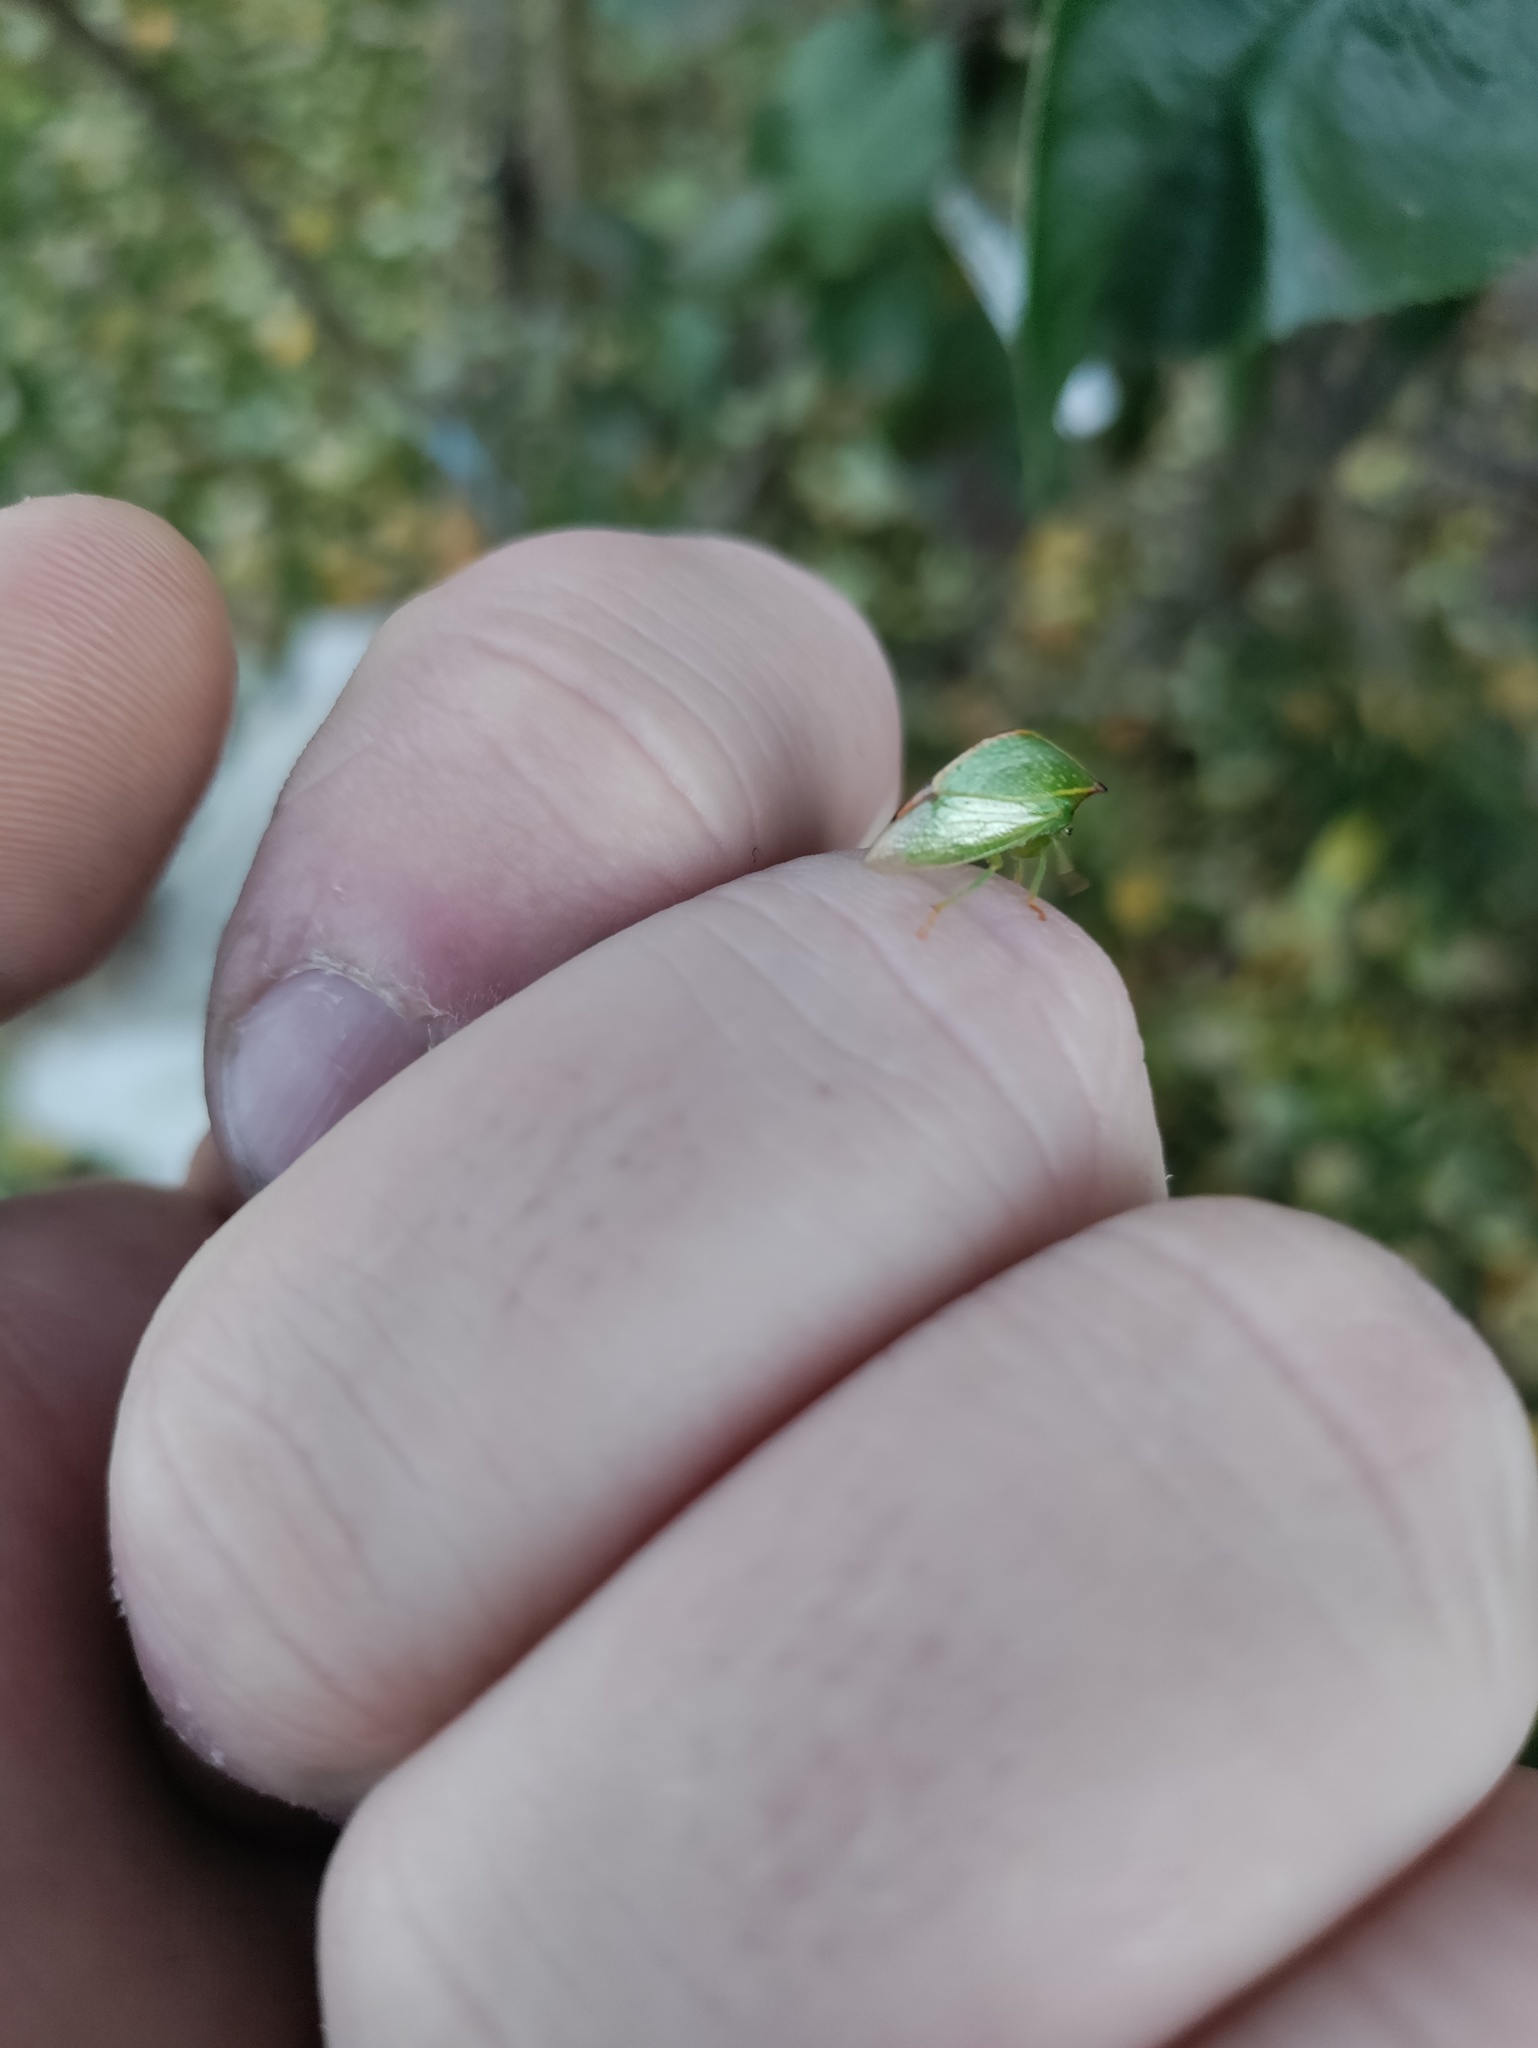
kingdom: Animalia
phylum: Arthropoda
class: Insecta
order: Hemiptera
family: Membracidae
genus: Stictocephala
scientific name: Stictocephala bisonia
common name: American buffalo treehopper
